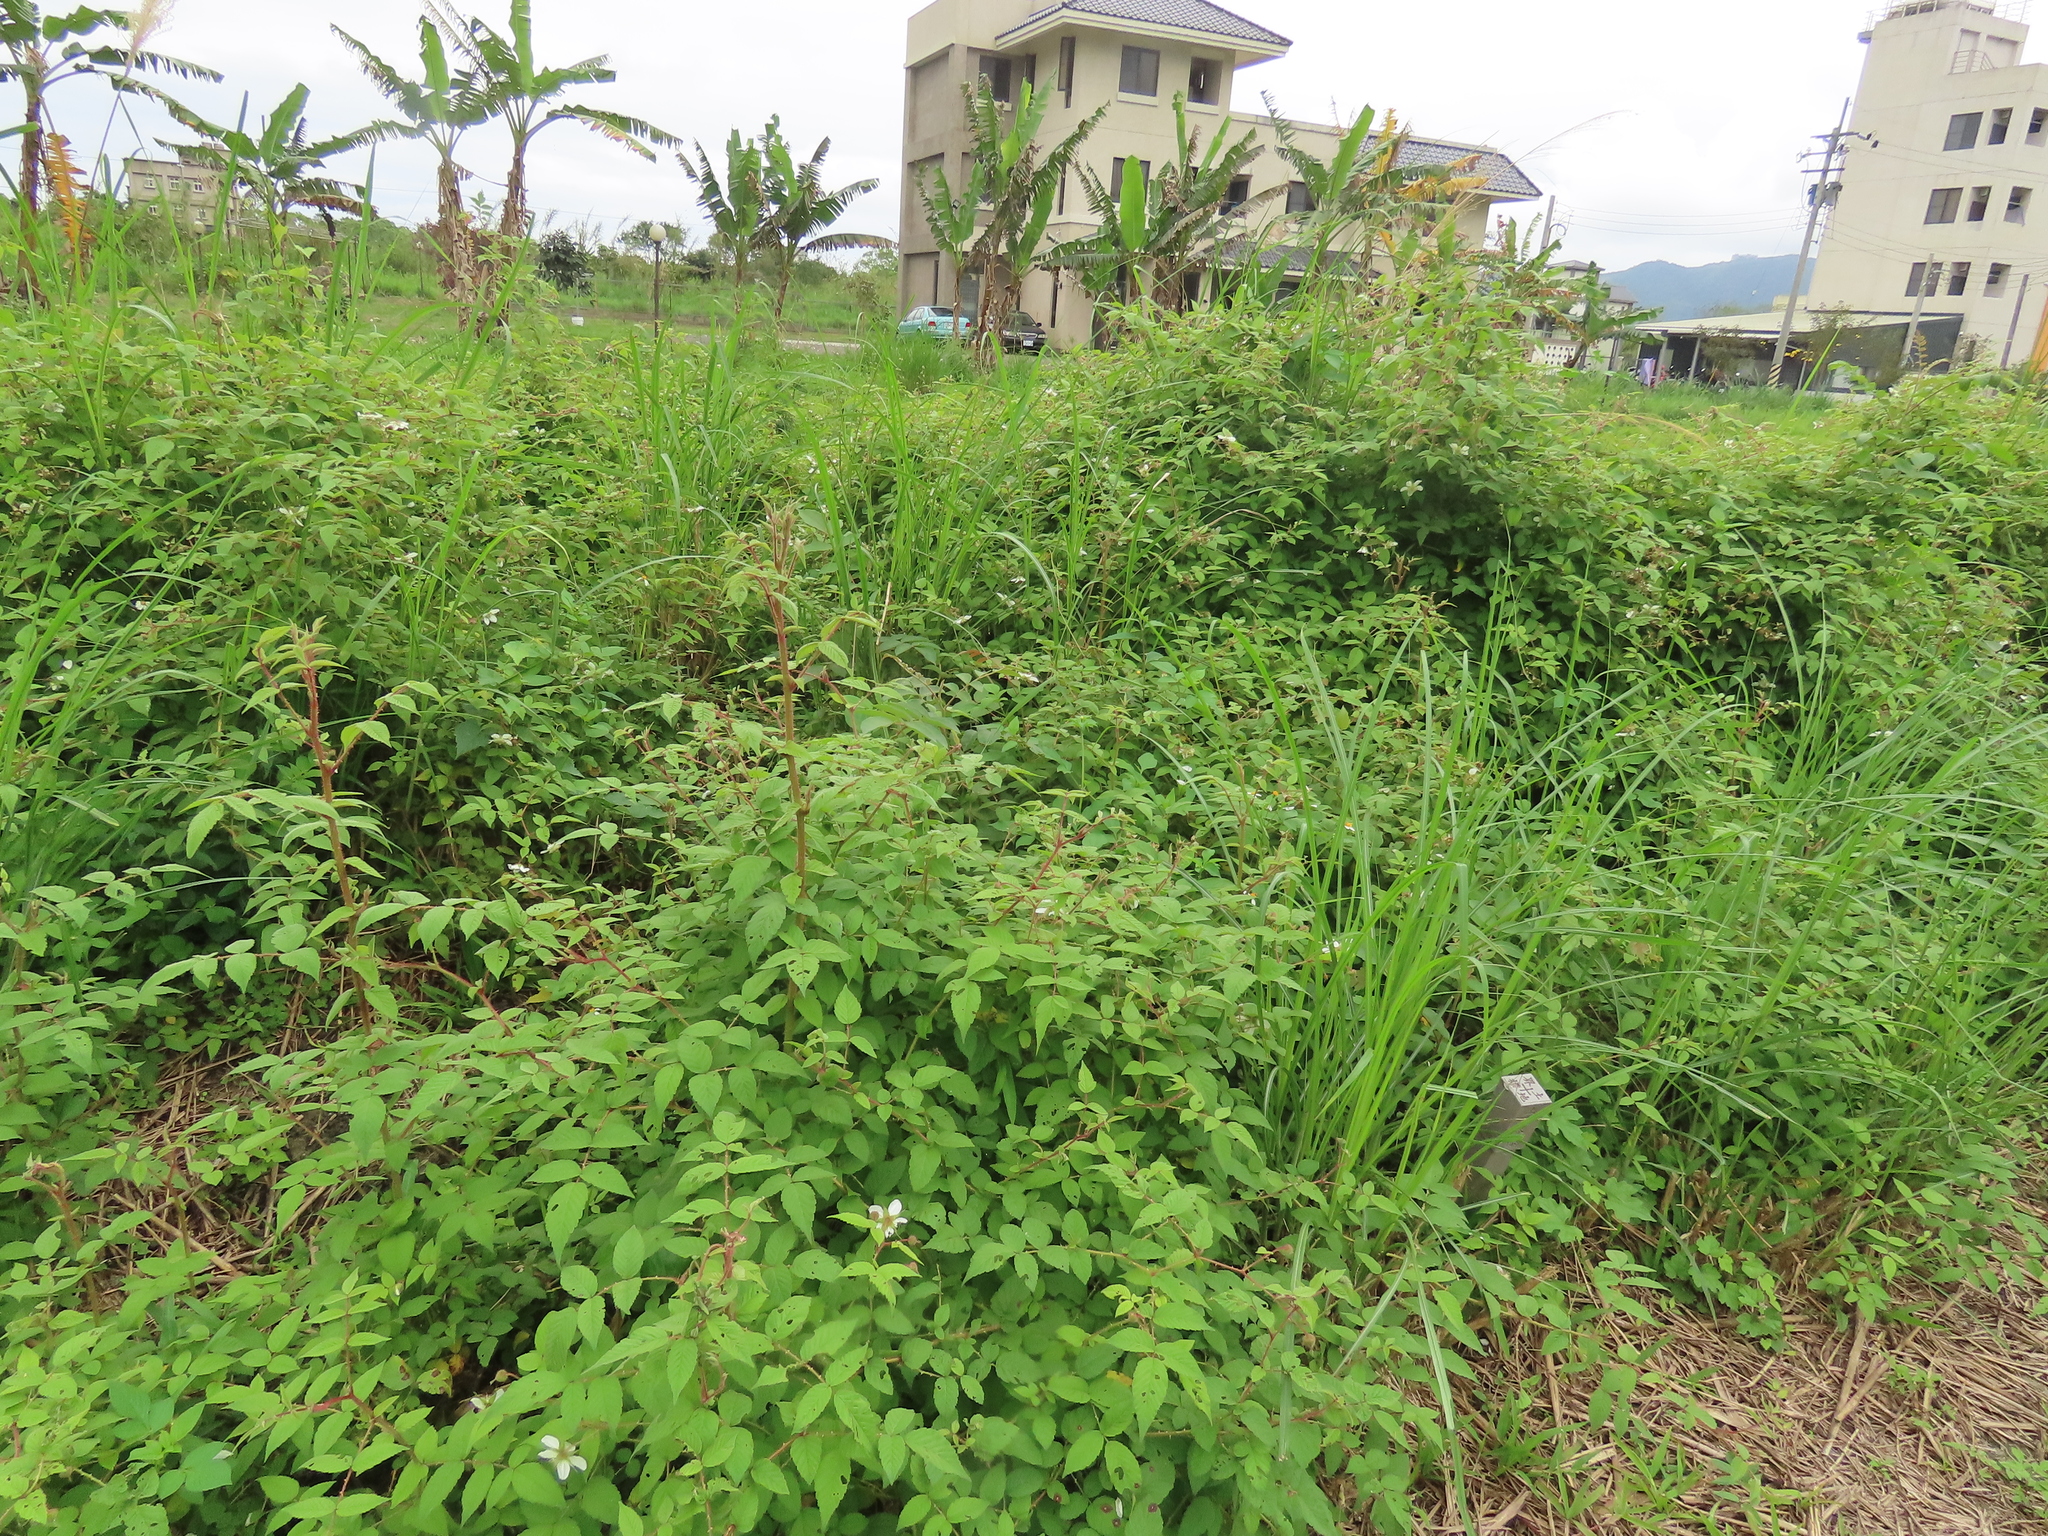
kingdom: Plantae
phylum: Tracheophyta
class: Magnoliopsida
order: Rosales
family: Rosaceae
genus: Rubus
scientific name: Rubus croceacanthus
